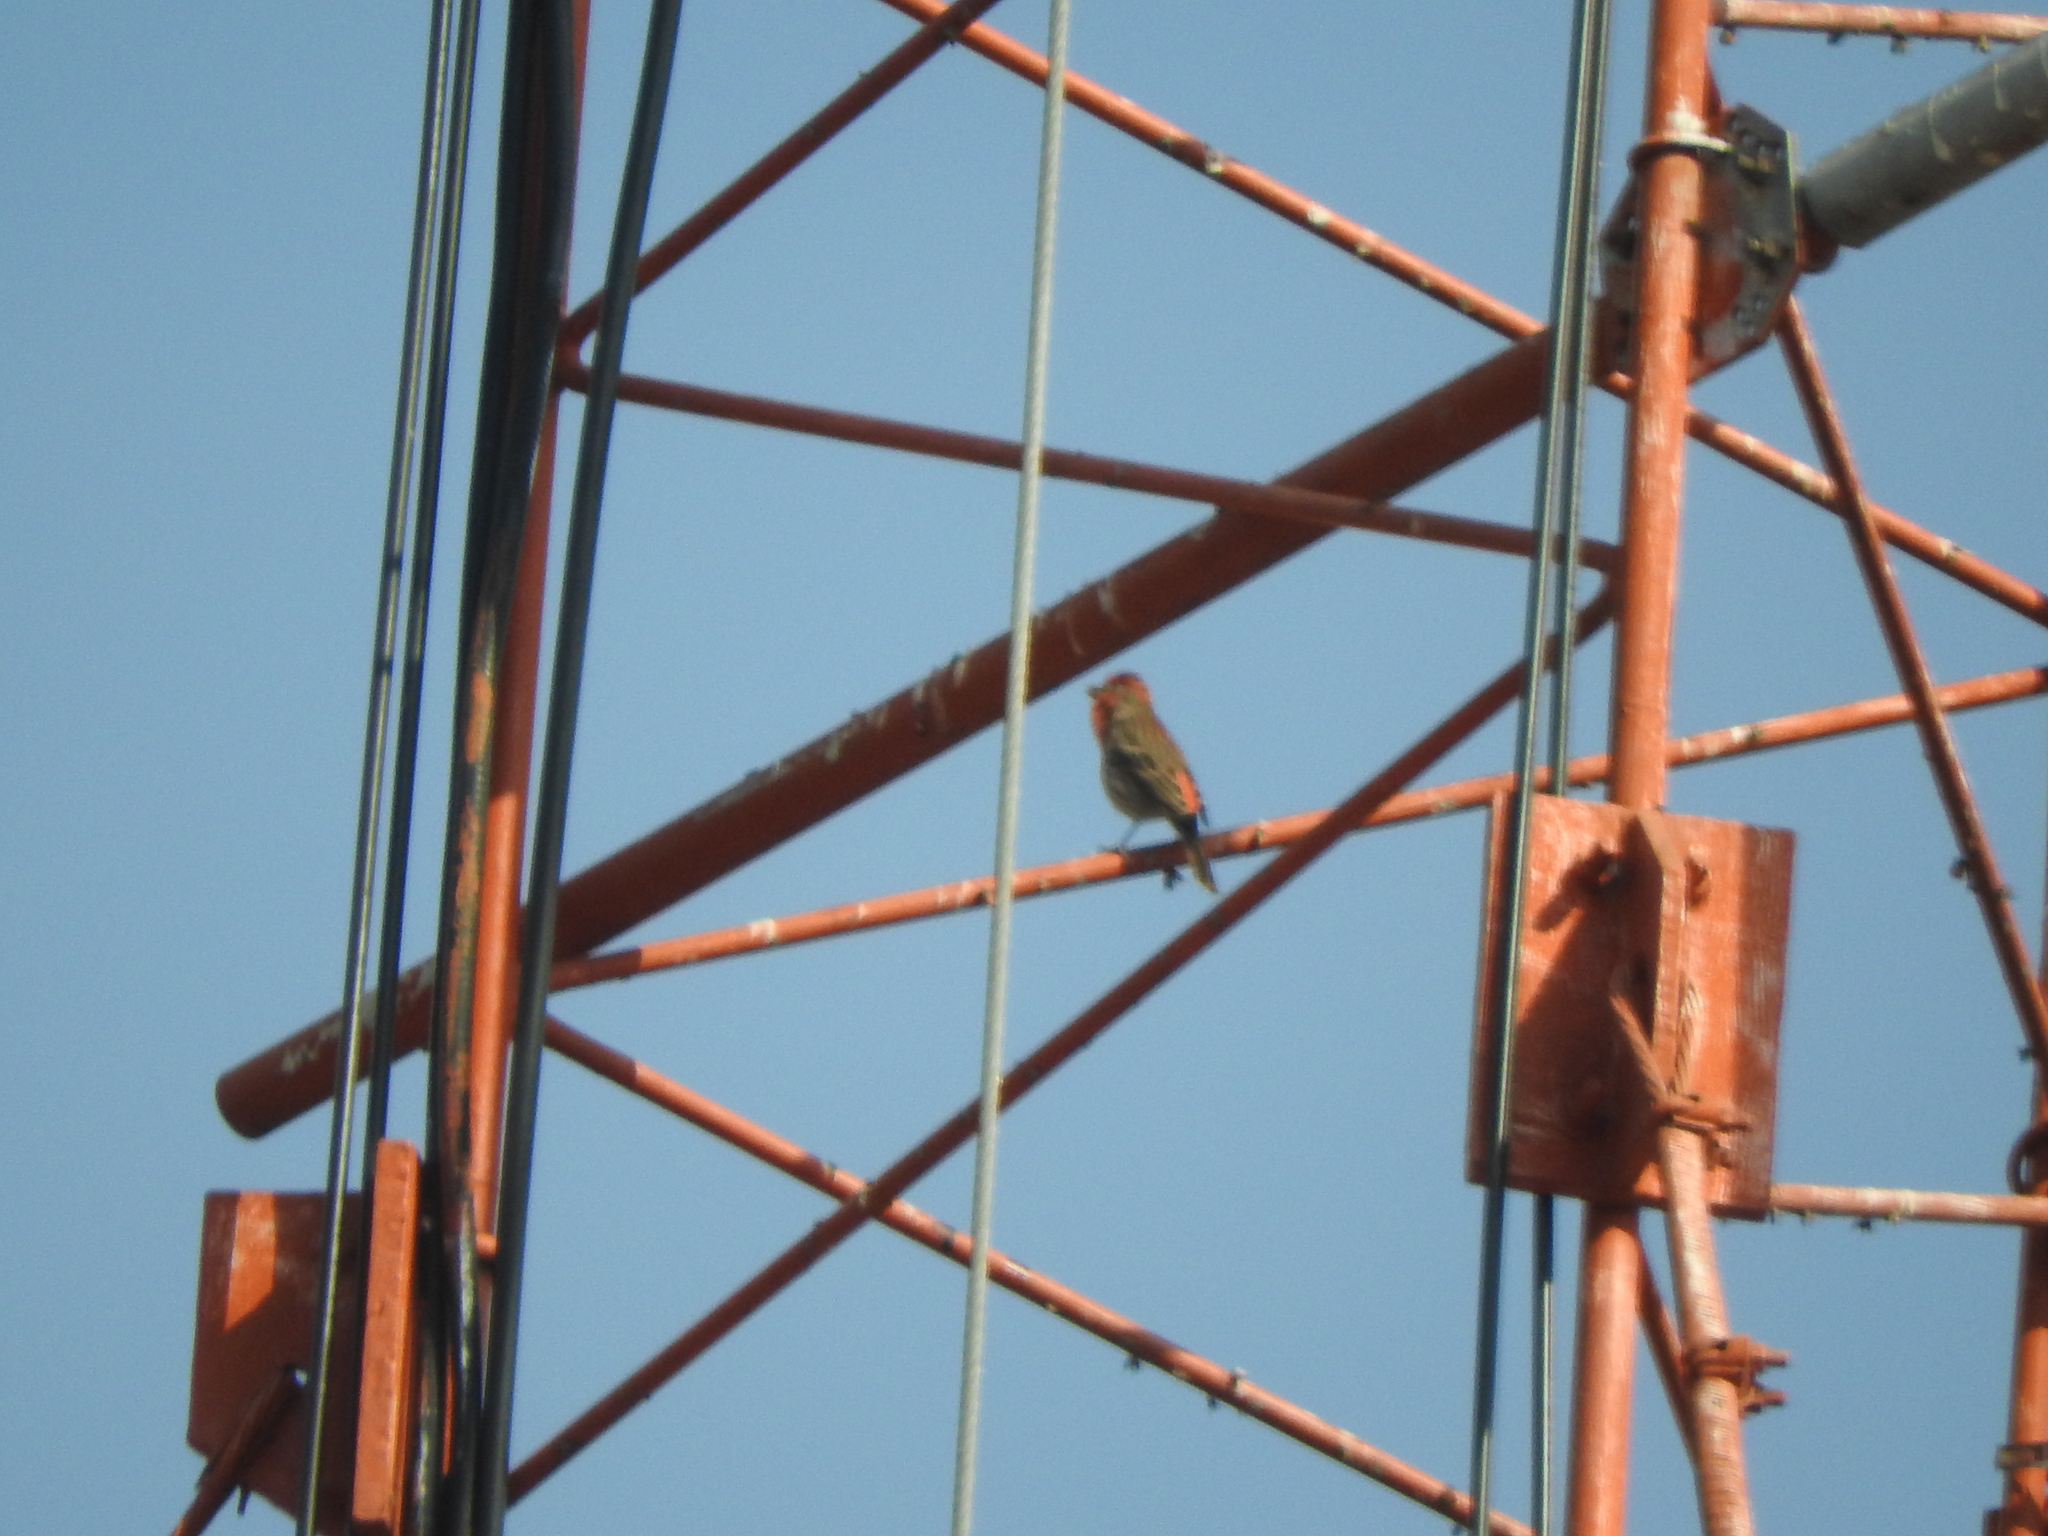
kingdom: Animalia
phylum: Chordata
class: Aves
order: Passeriformes
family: Fringillidae
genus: Haemorhous
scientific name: Haemorhous mexicanus
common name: House finch
